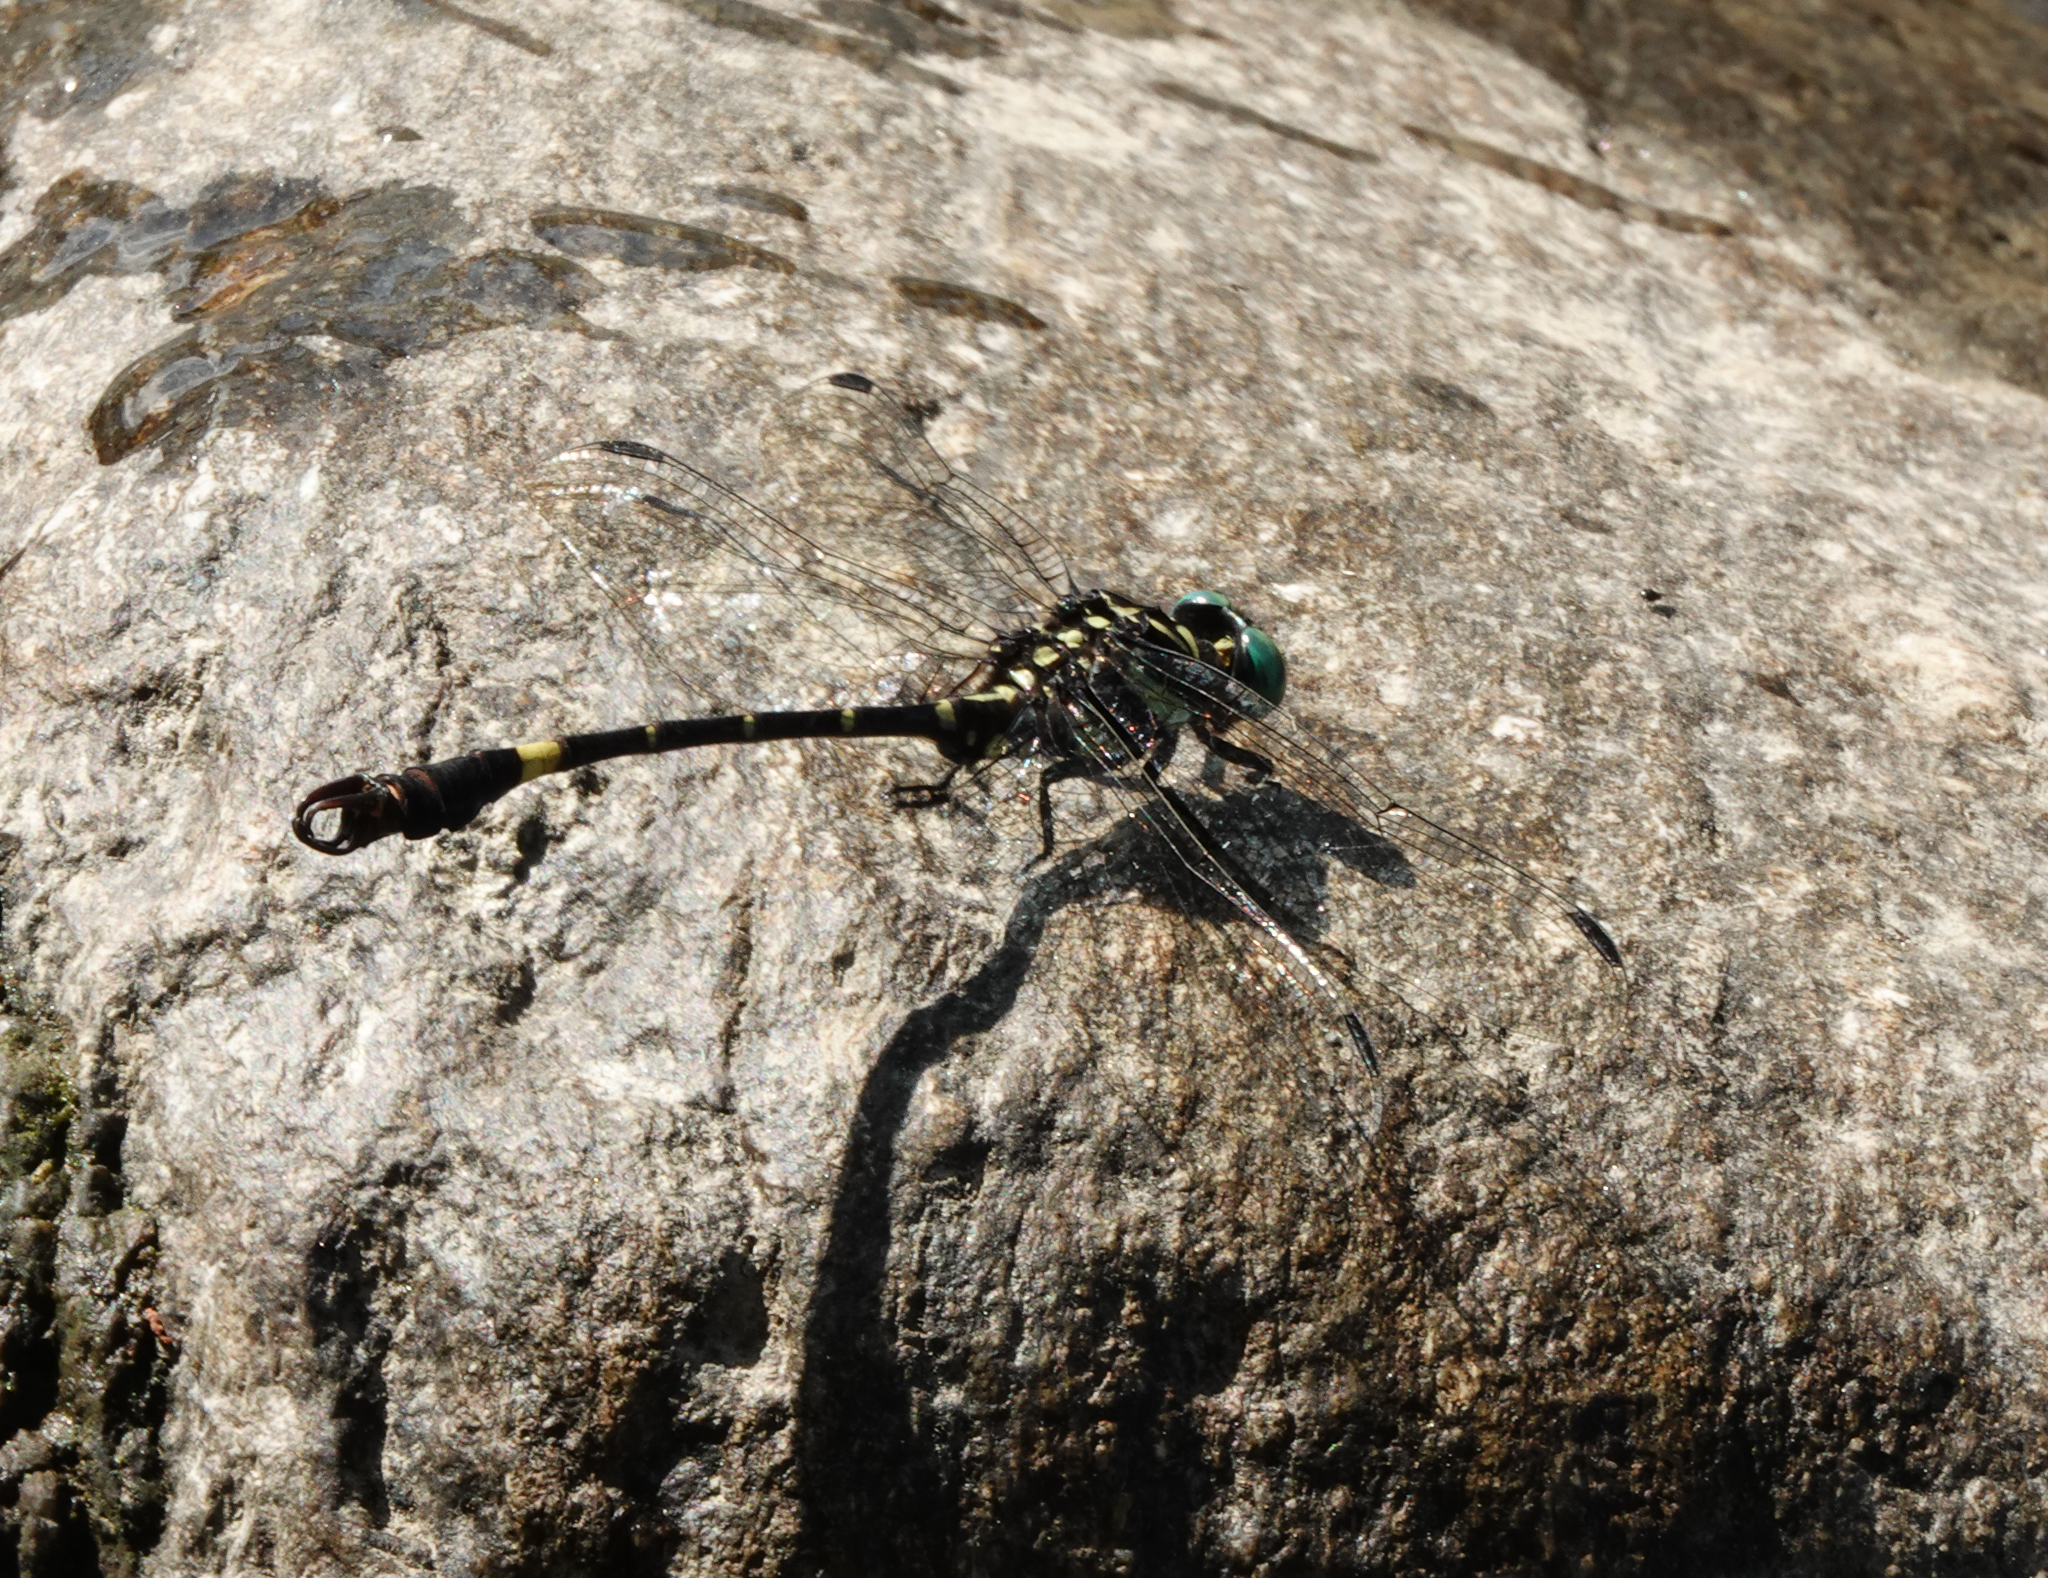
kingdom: Animalia
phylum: Arthropoda
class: Insecta
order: Odonata
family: Gomphidae
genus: Lamelligomphus
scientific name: Lamelligomphus risi
